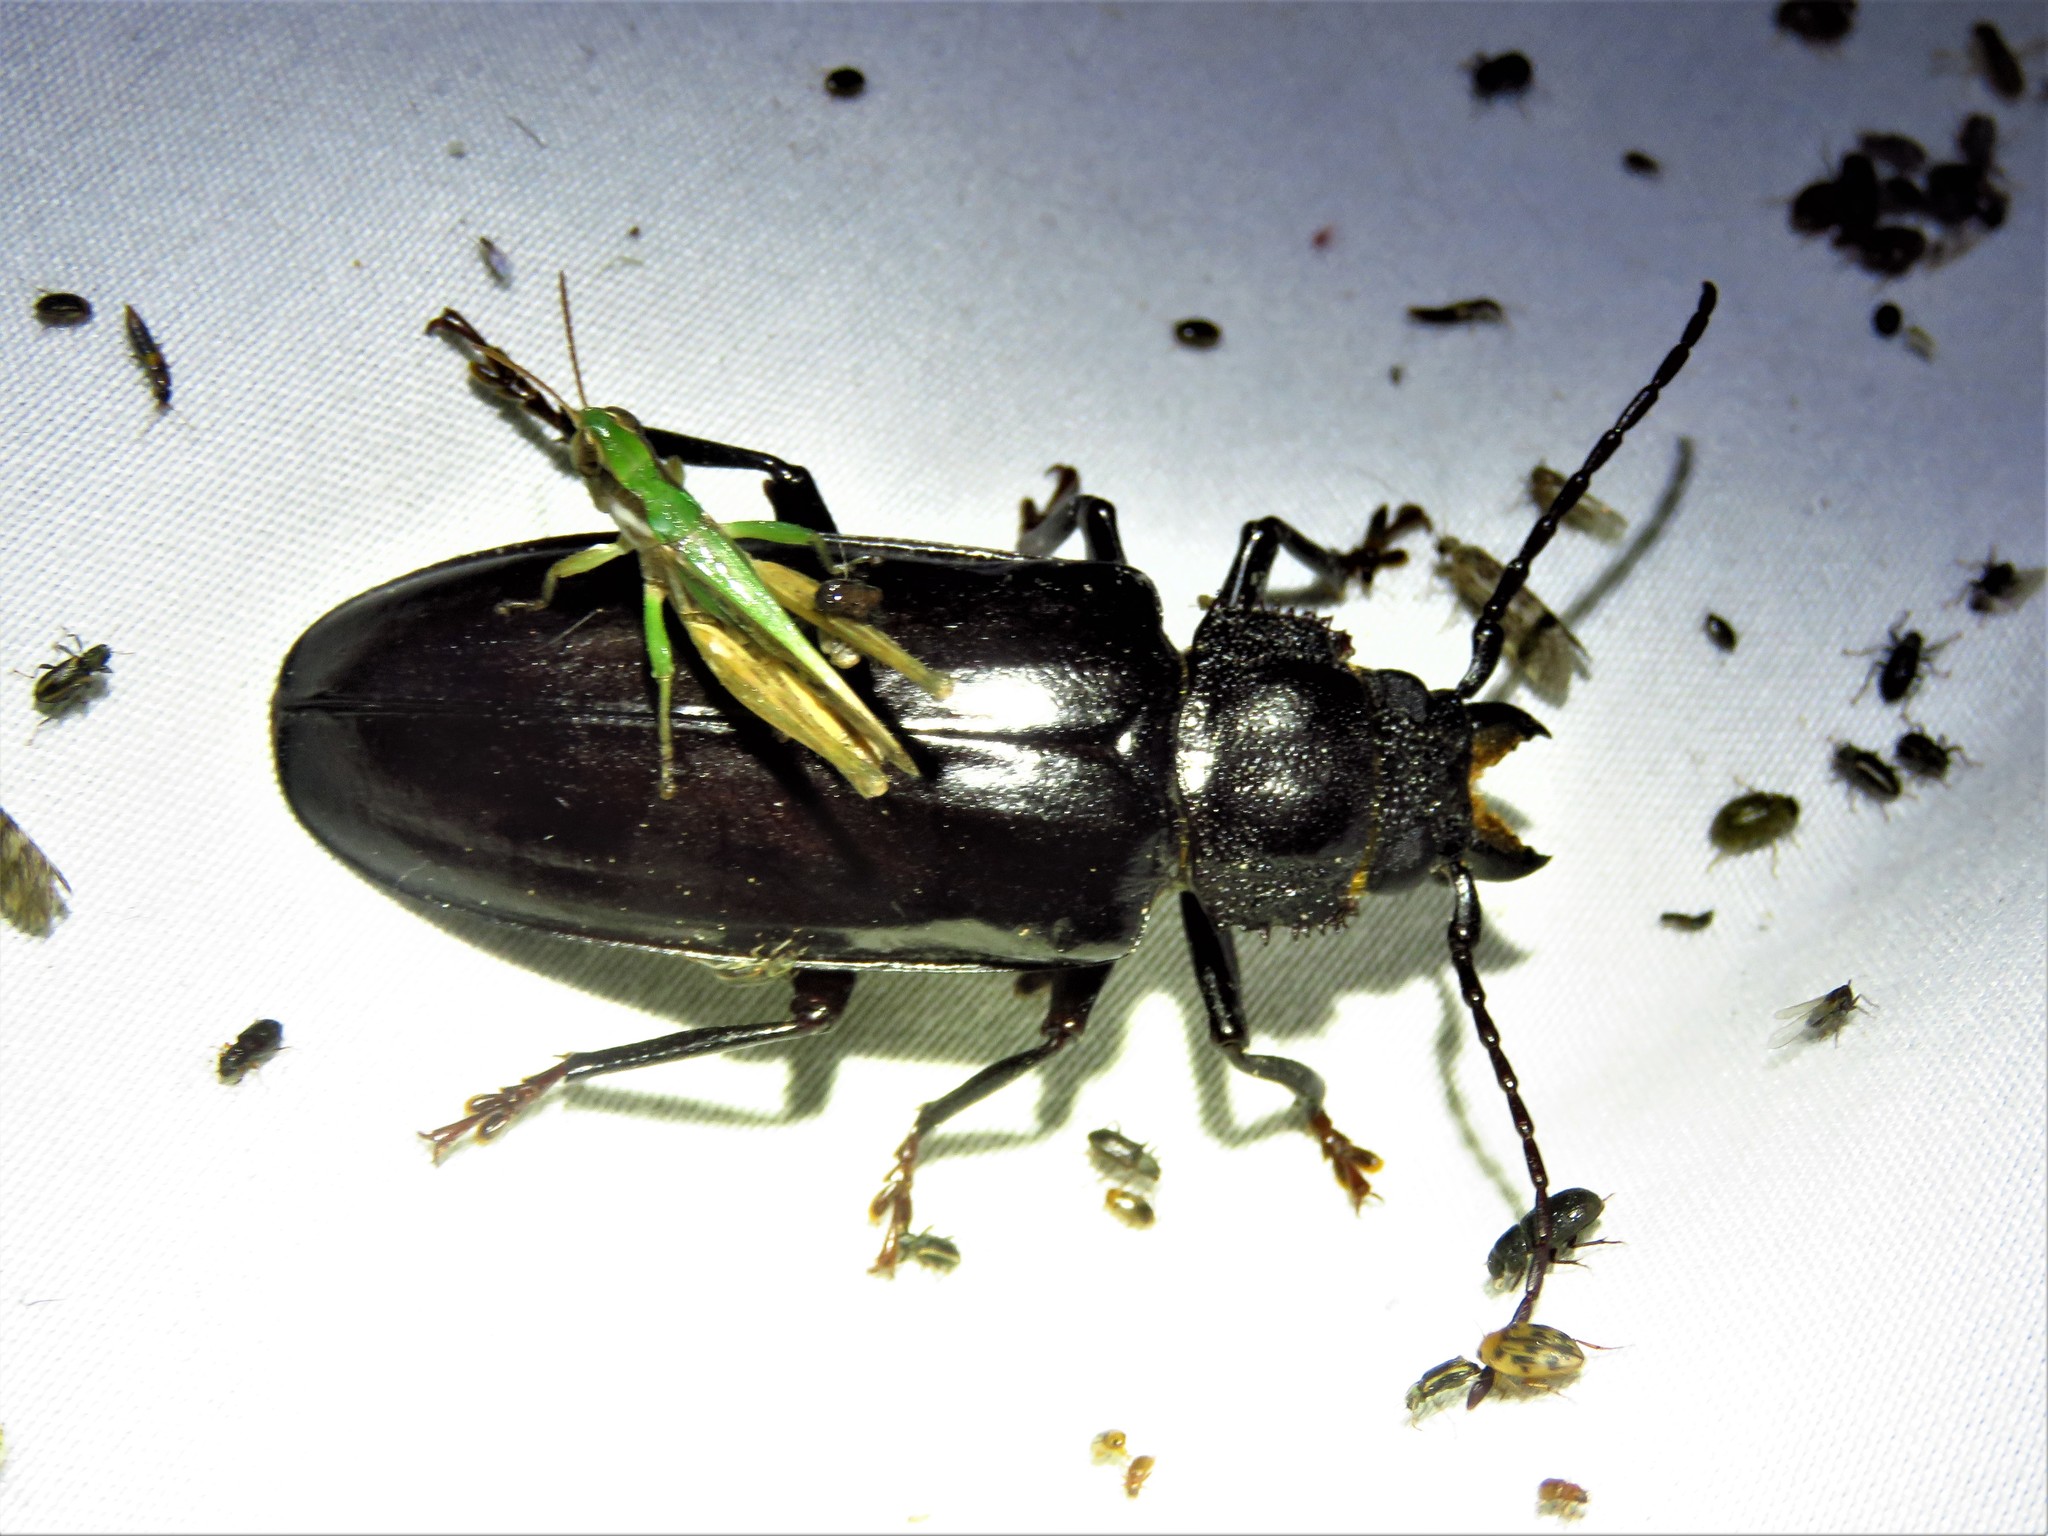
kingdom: Animalia
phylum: Arthropoda
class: Insecta
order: Coleoptera
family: Cerambycidae
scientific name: Cerambycidae
